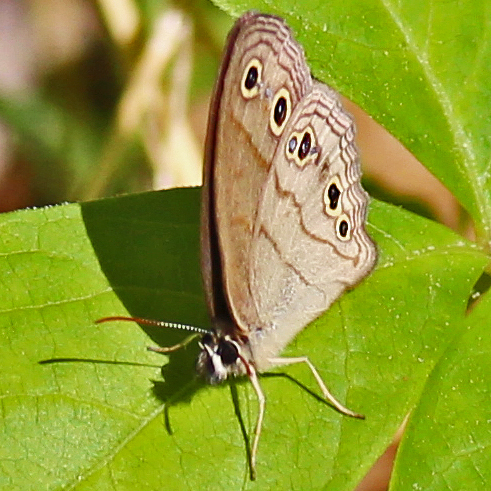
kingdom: Animalia
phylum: Arthropoda
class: Insecta
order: Lepidoptera
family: Nymphalidae
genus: Euptychia
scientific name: Euptychia cymela
